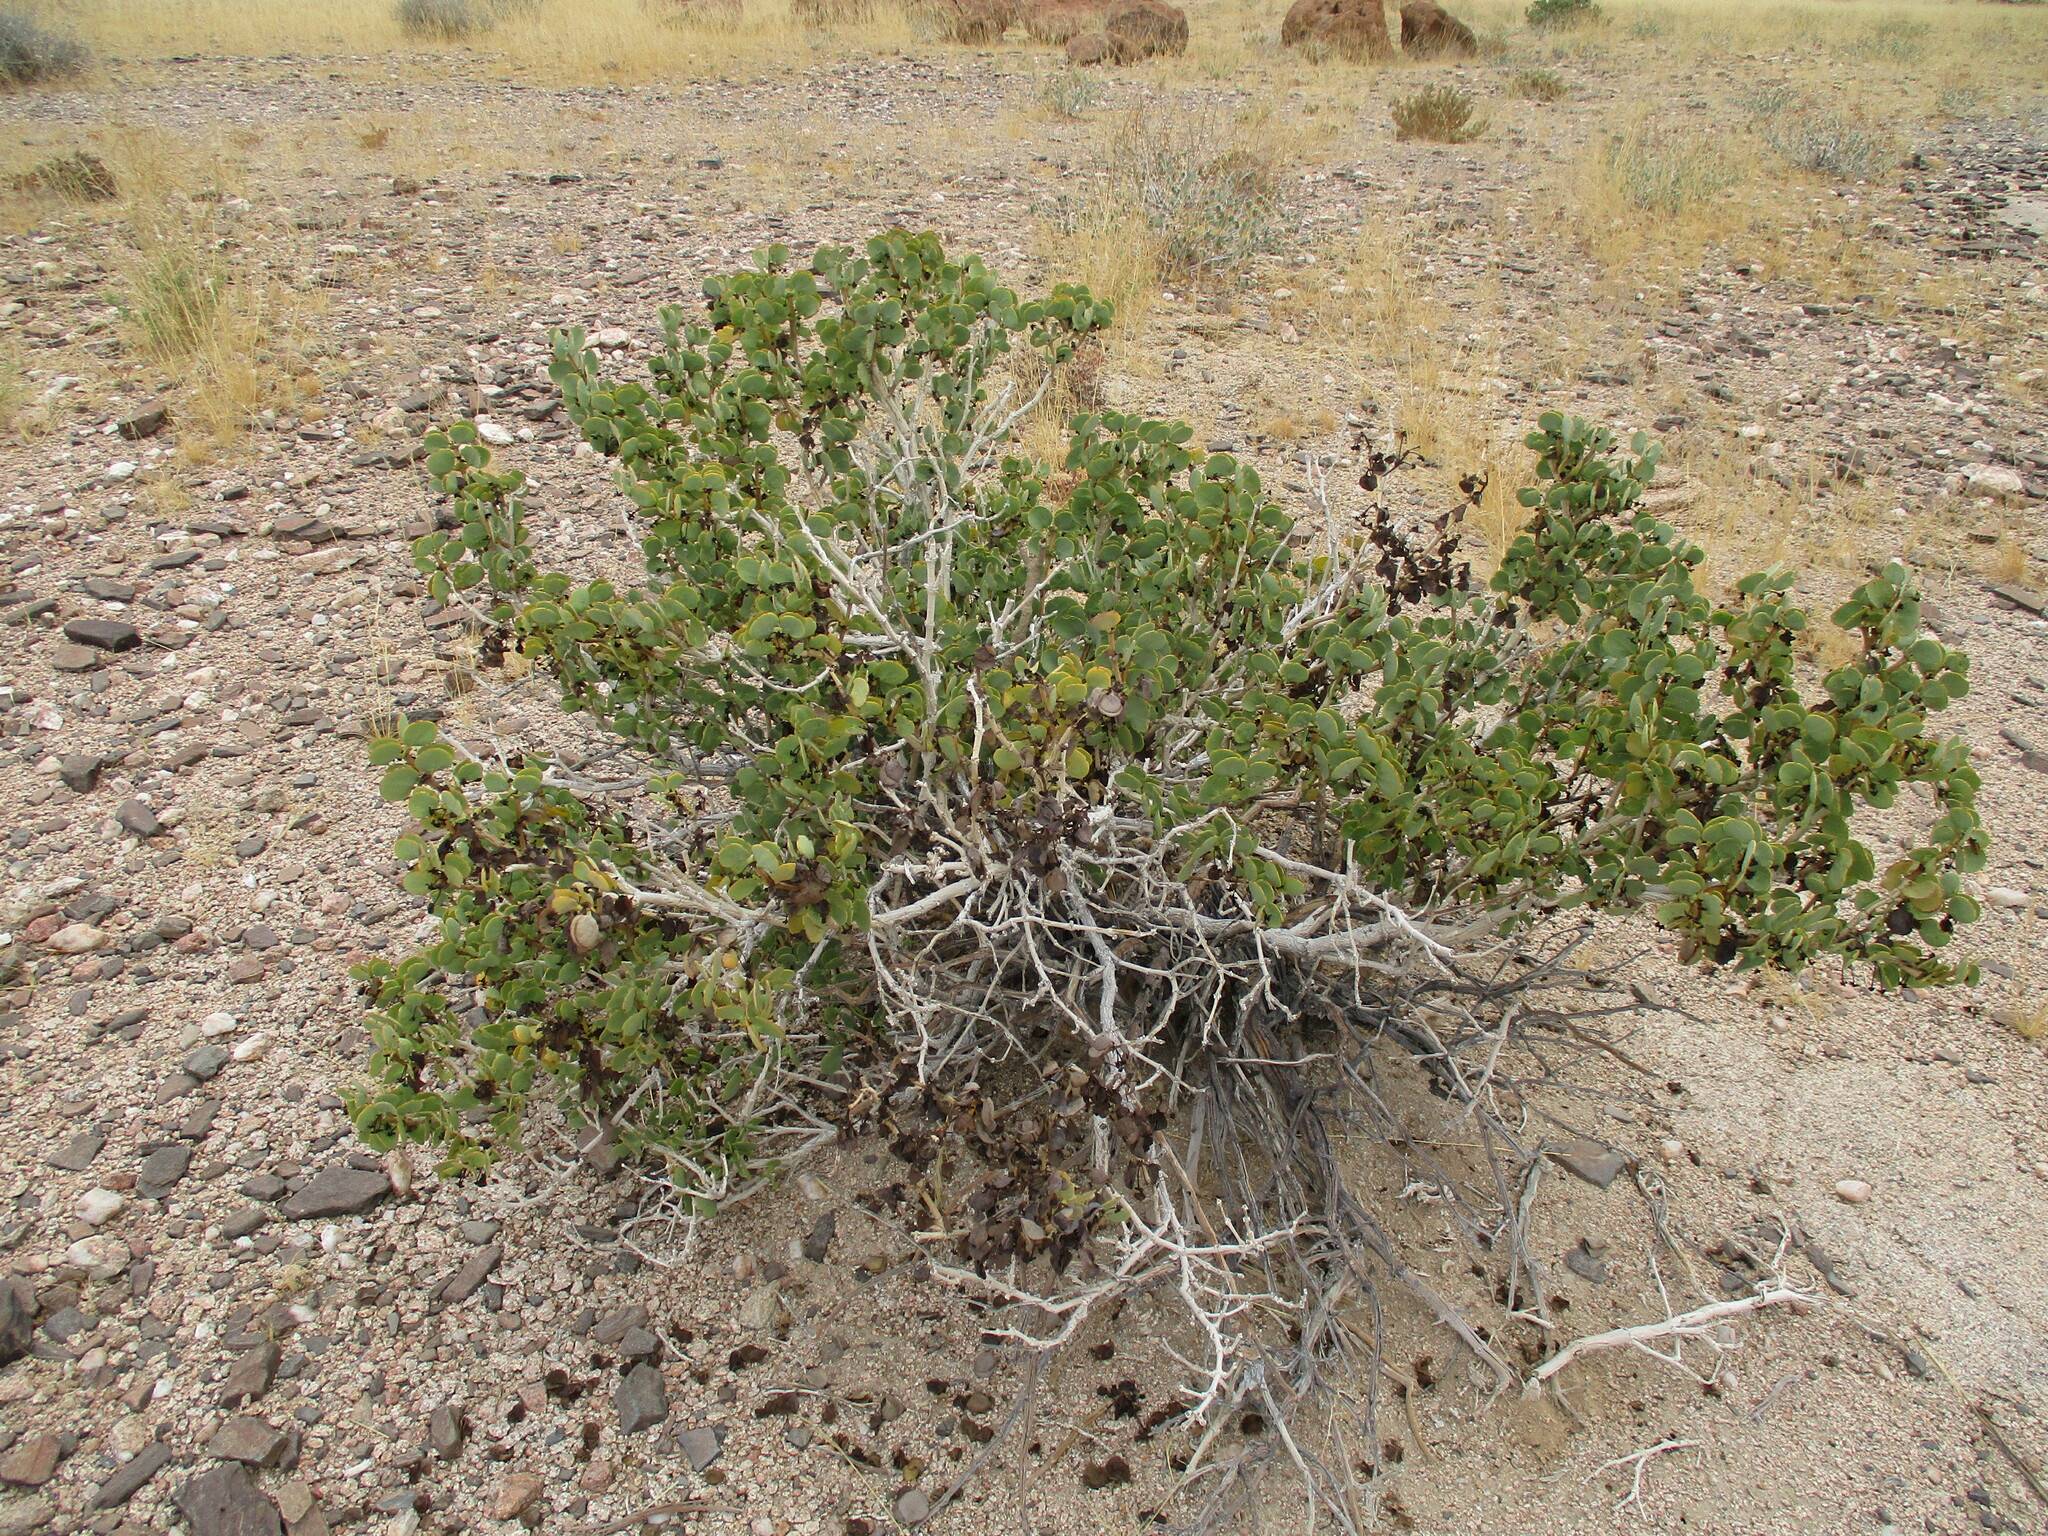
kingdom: Plantae
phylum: Tracheophyta
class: Magnoliopsida
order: Zygophyllales
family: Zygophyllaceae
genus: Tetraena
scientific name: Tetraena stapfii
